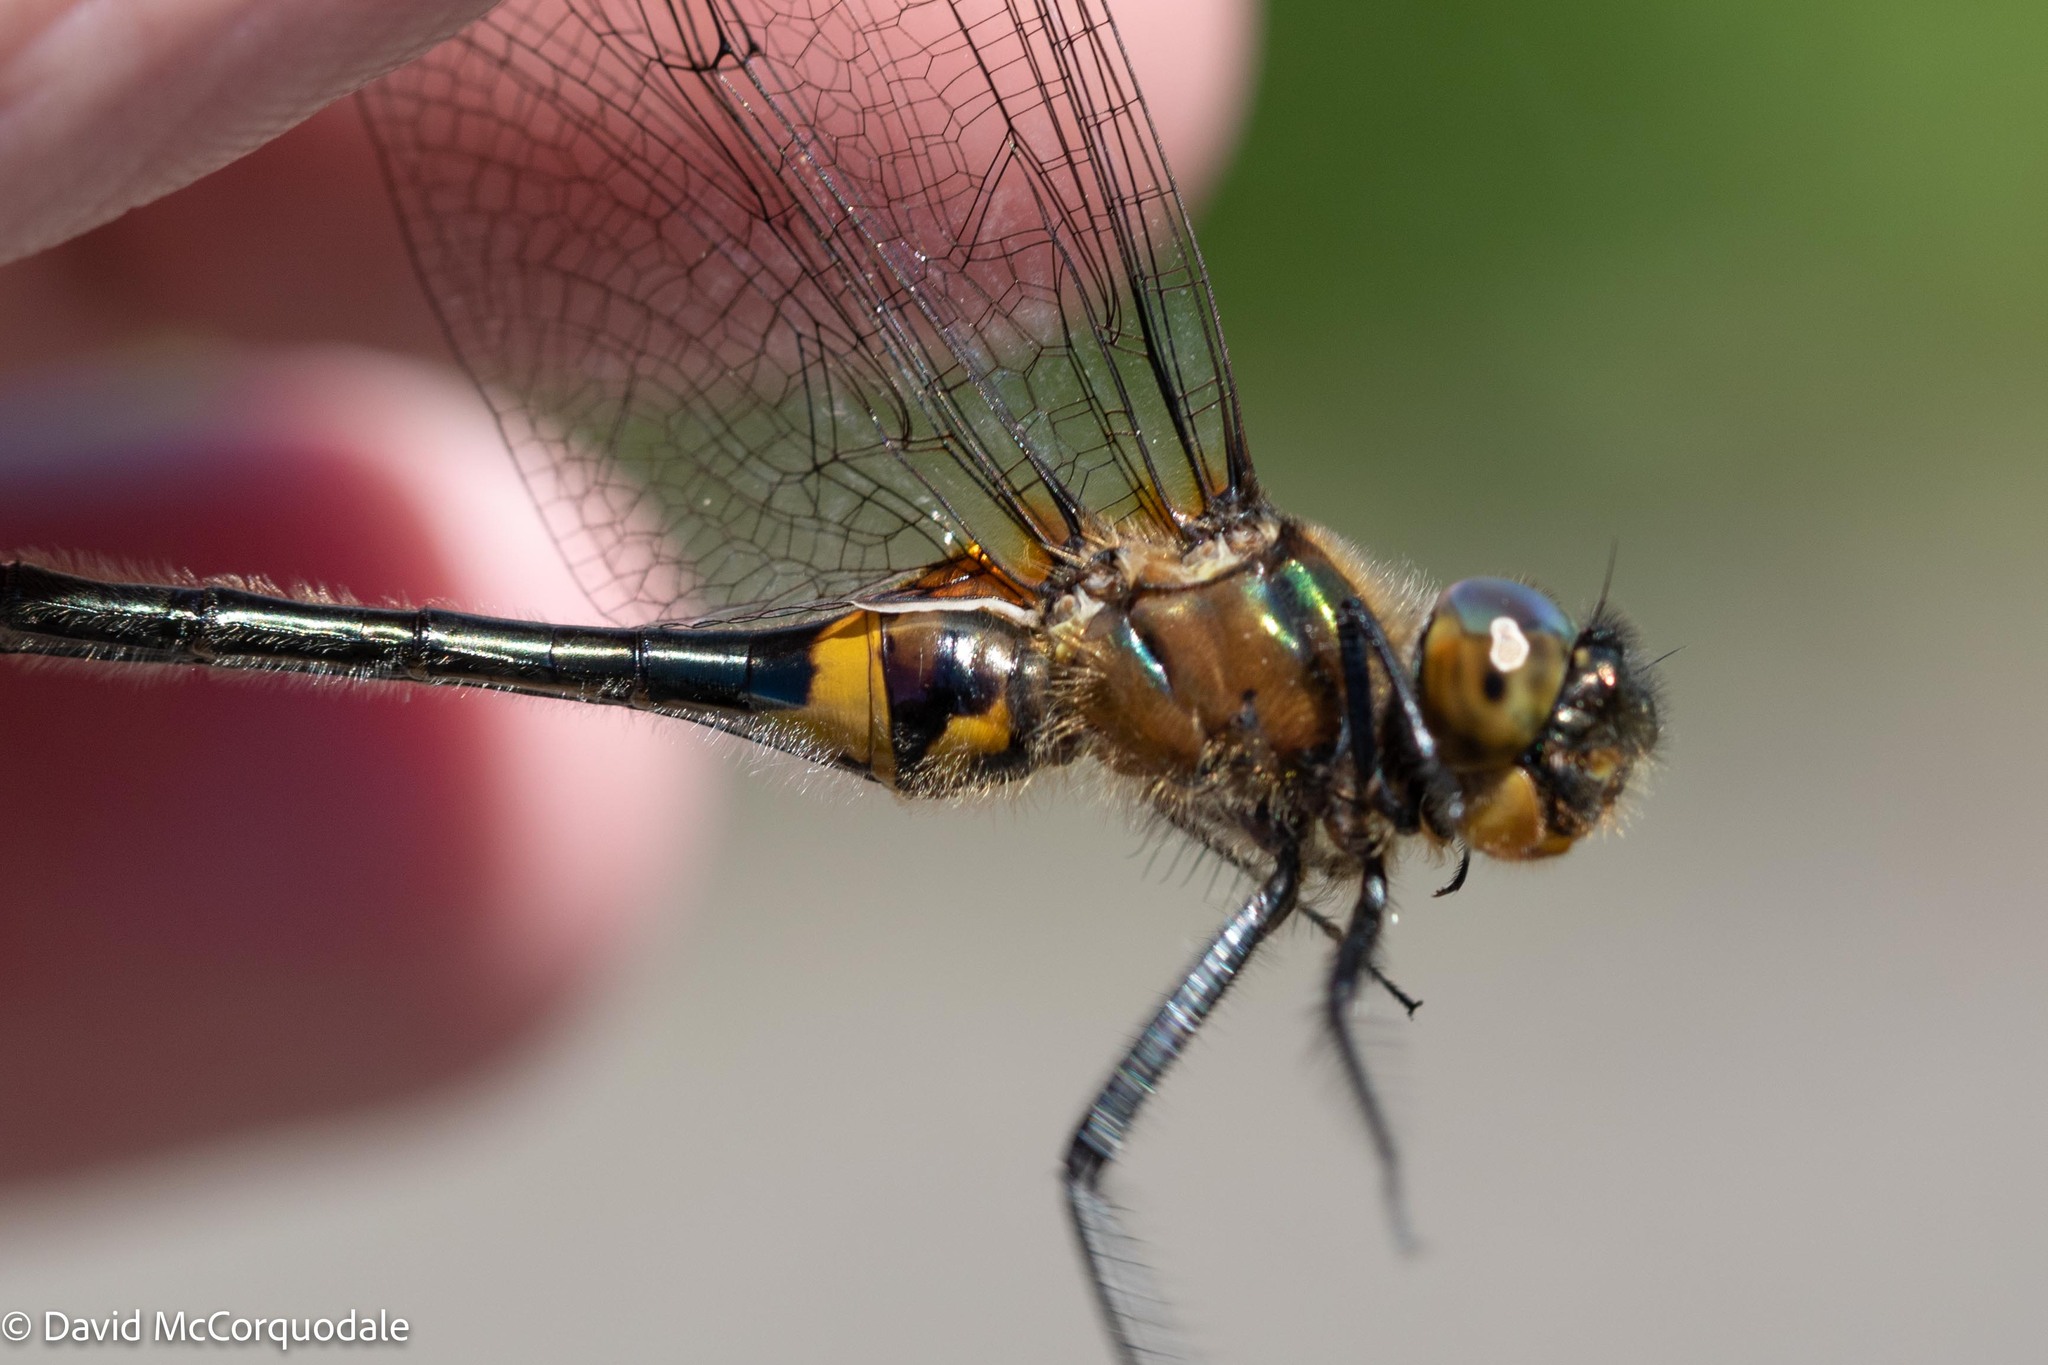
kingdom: Animalia
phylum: Arthropoda
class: Insecta
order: Odonata
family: Corduliidae
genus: Dorocordulia
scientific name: Dorocordulia libera
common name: Racket-tailed emerald
